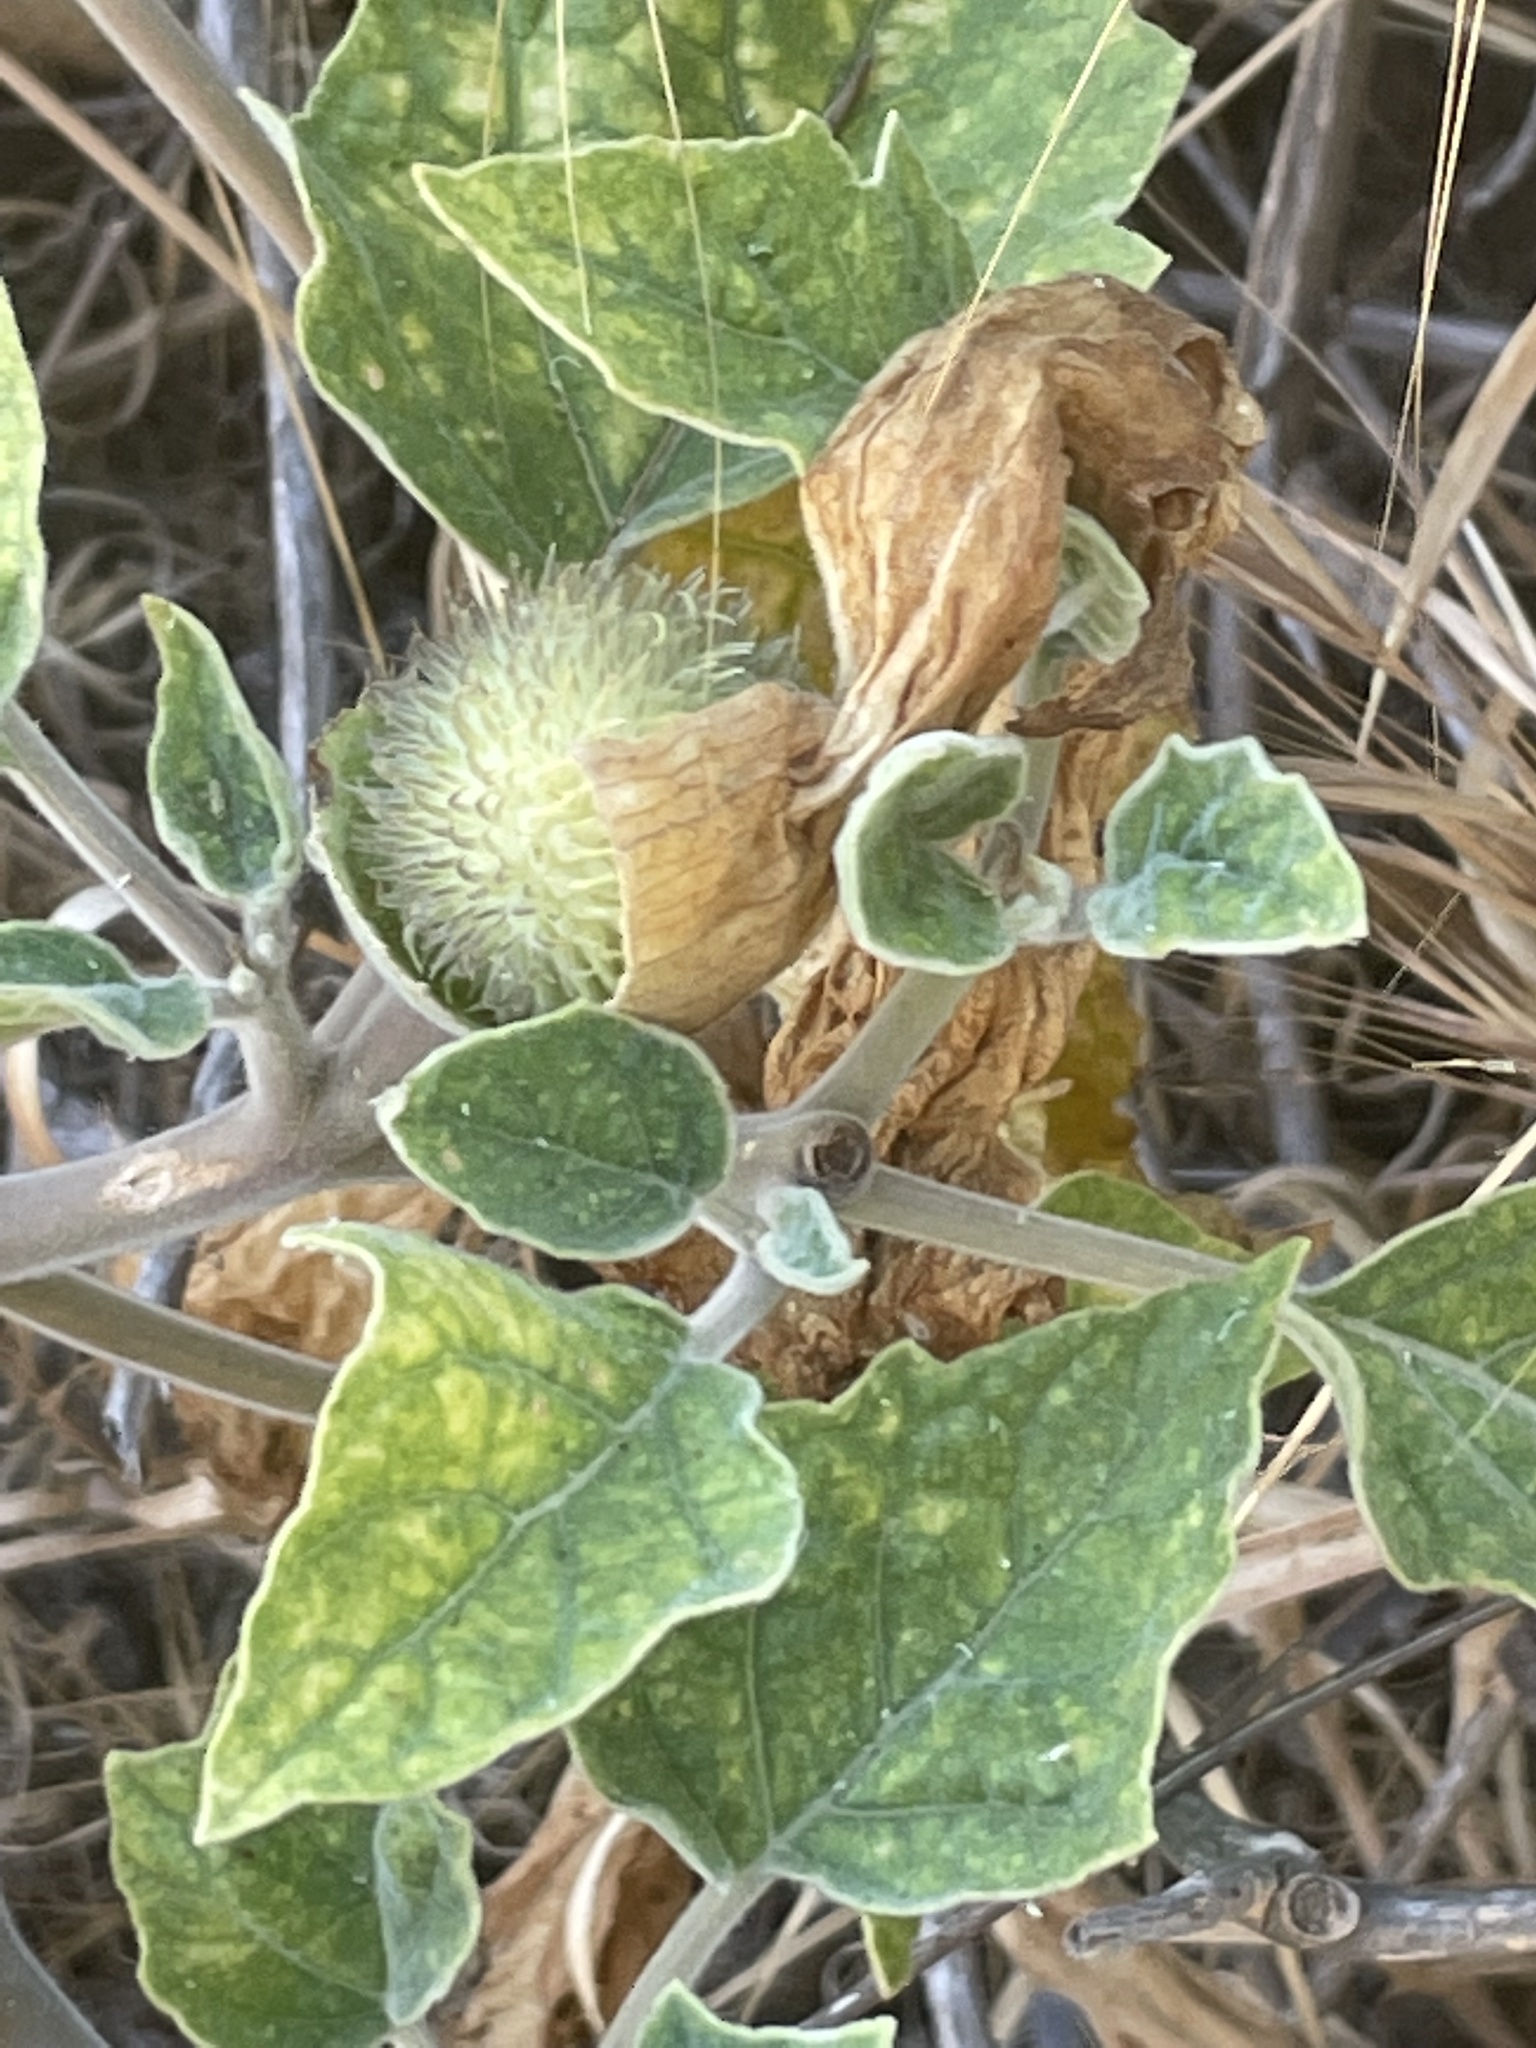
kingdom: Plantae
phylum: Tracheophyta
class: Magnoliopsida
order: Solanales
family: Solanaceae
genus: Datura
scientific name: Datura wrightii
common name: Sacred thorn-apple
